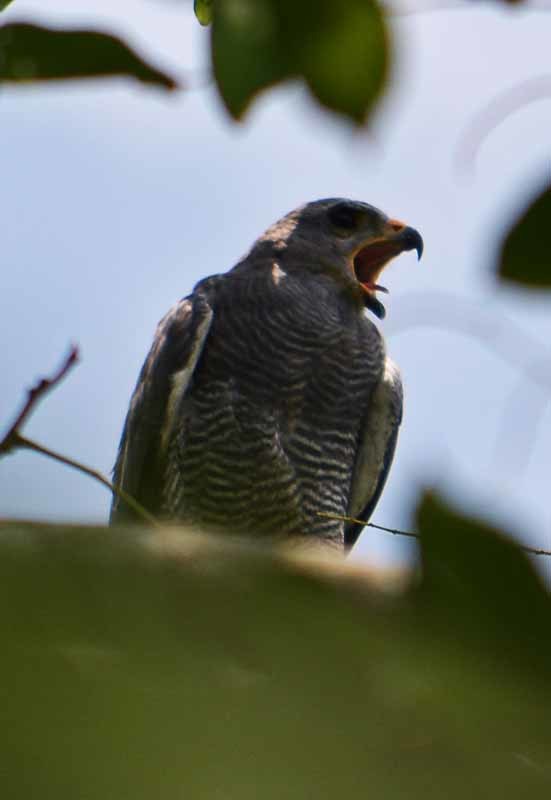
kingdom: Animalia
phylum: Chordata
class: Aves
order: Accipitriformes
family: Accipitridae
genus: Buteo
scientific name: Buteo nitidus
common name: Grey-lined hawk
